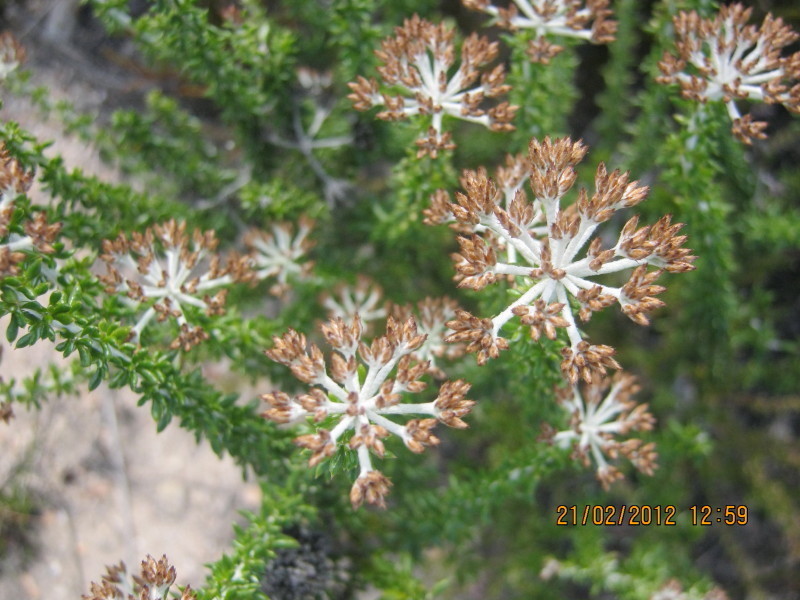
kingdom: Plantae
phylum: Tracheophyta
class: Magnoliopsida
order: Asterales
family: Asteraceae
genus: Metalasia
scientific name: Metalasia densa
